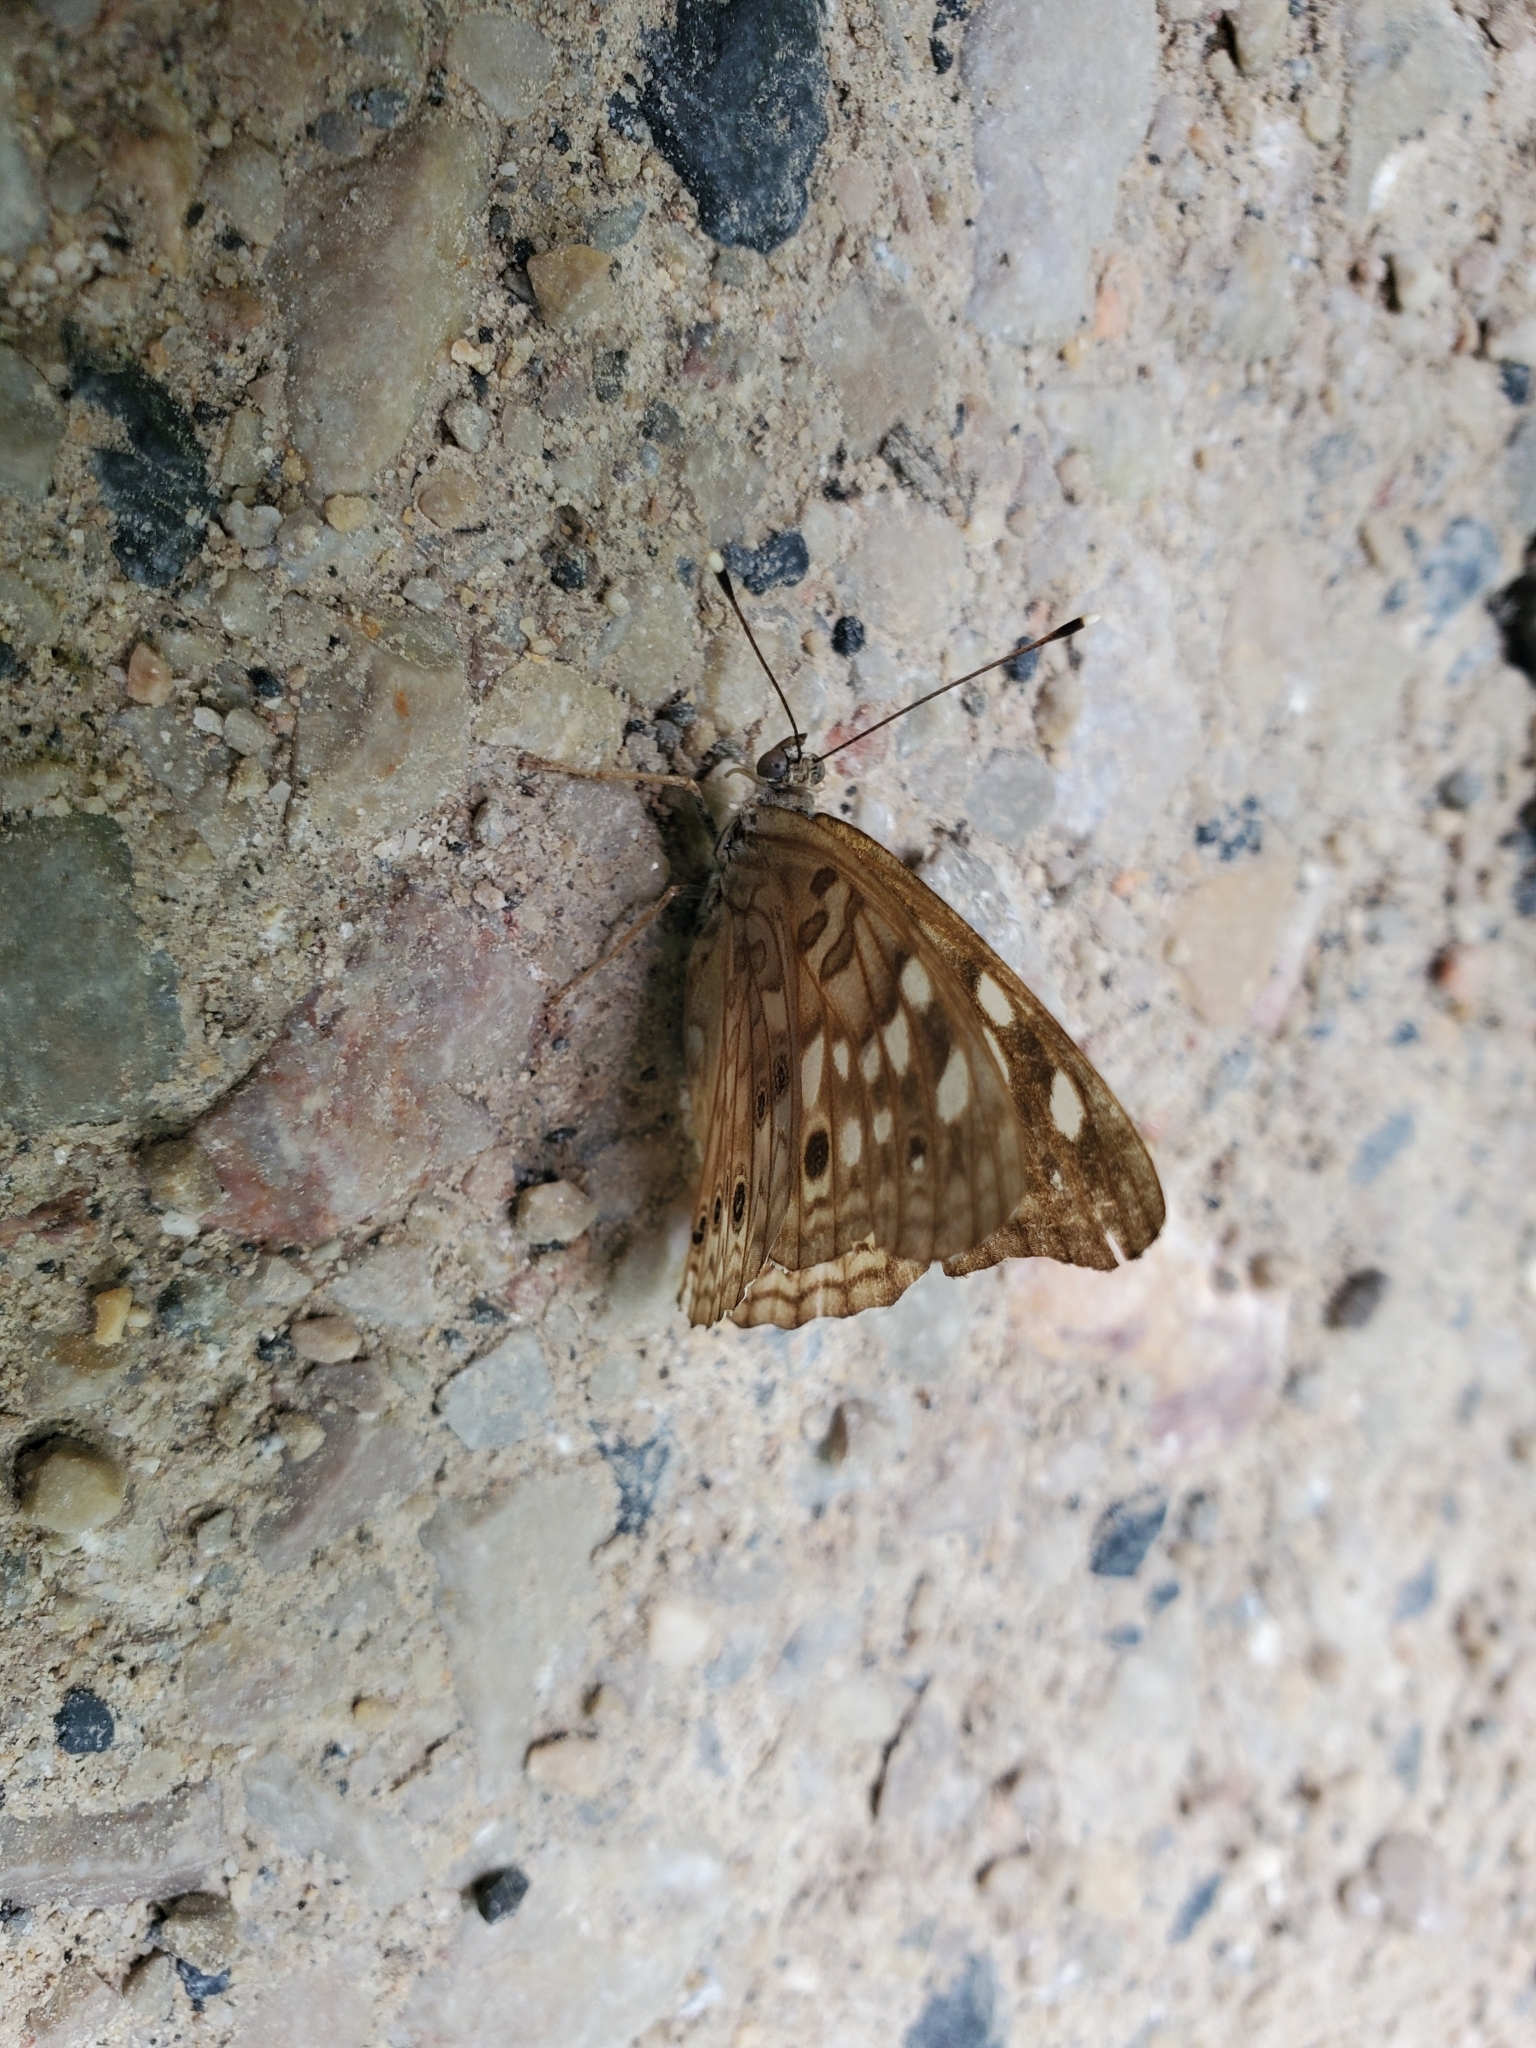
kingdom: Animalia
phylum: Arthropoda
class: Insecta
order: Lepidoptera
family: Nymphalidae
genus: Asterocampa
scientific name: Asterocampa celtis
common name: Hackberry emperor
